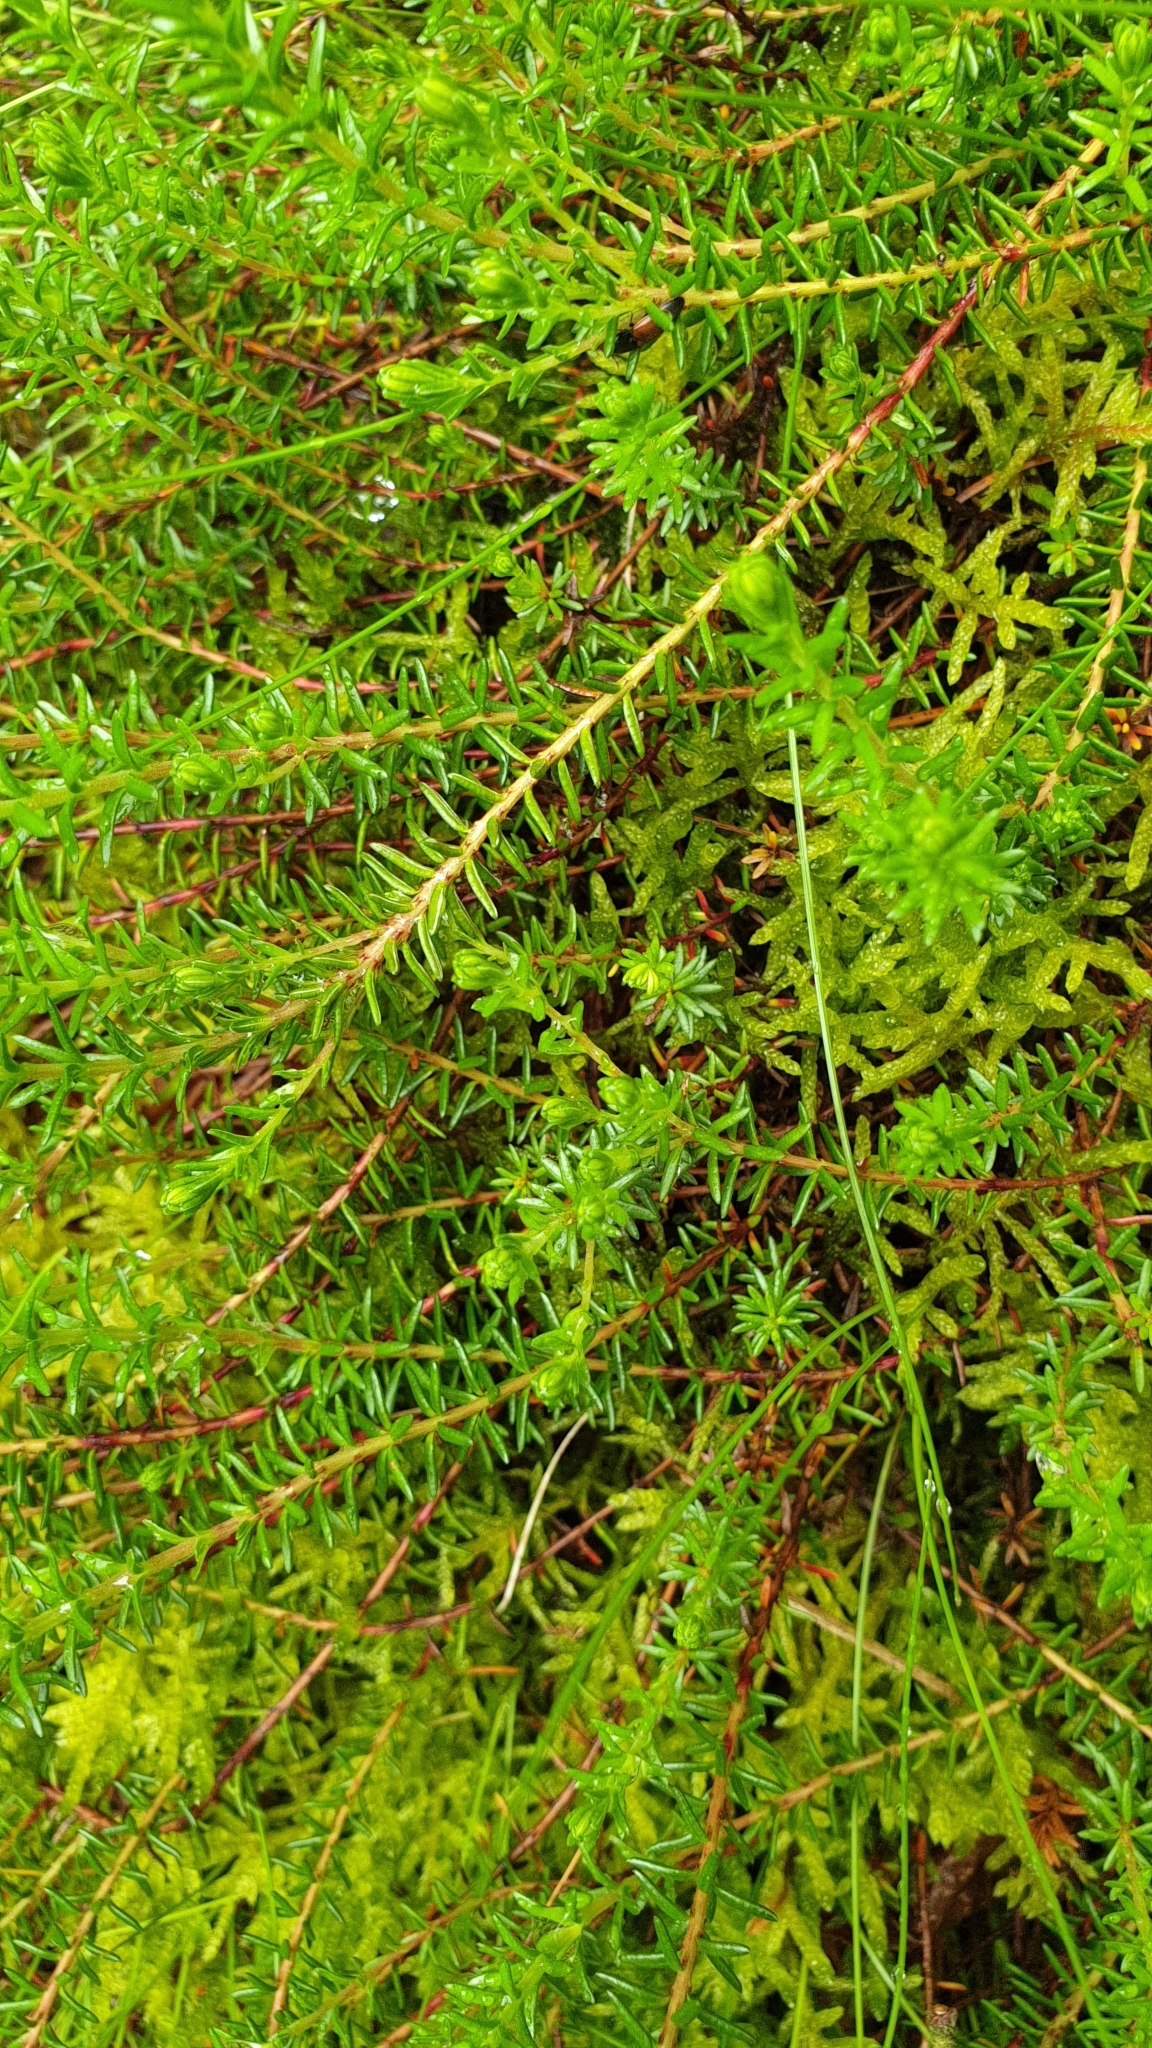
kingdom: Plantae
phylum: Tracheophyta
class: Magnoliopsida
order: Ericales
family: Ericaceae
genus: Empetrum
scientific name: Empetrum nigrum
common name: Black crowberry
